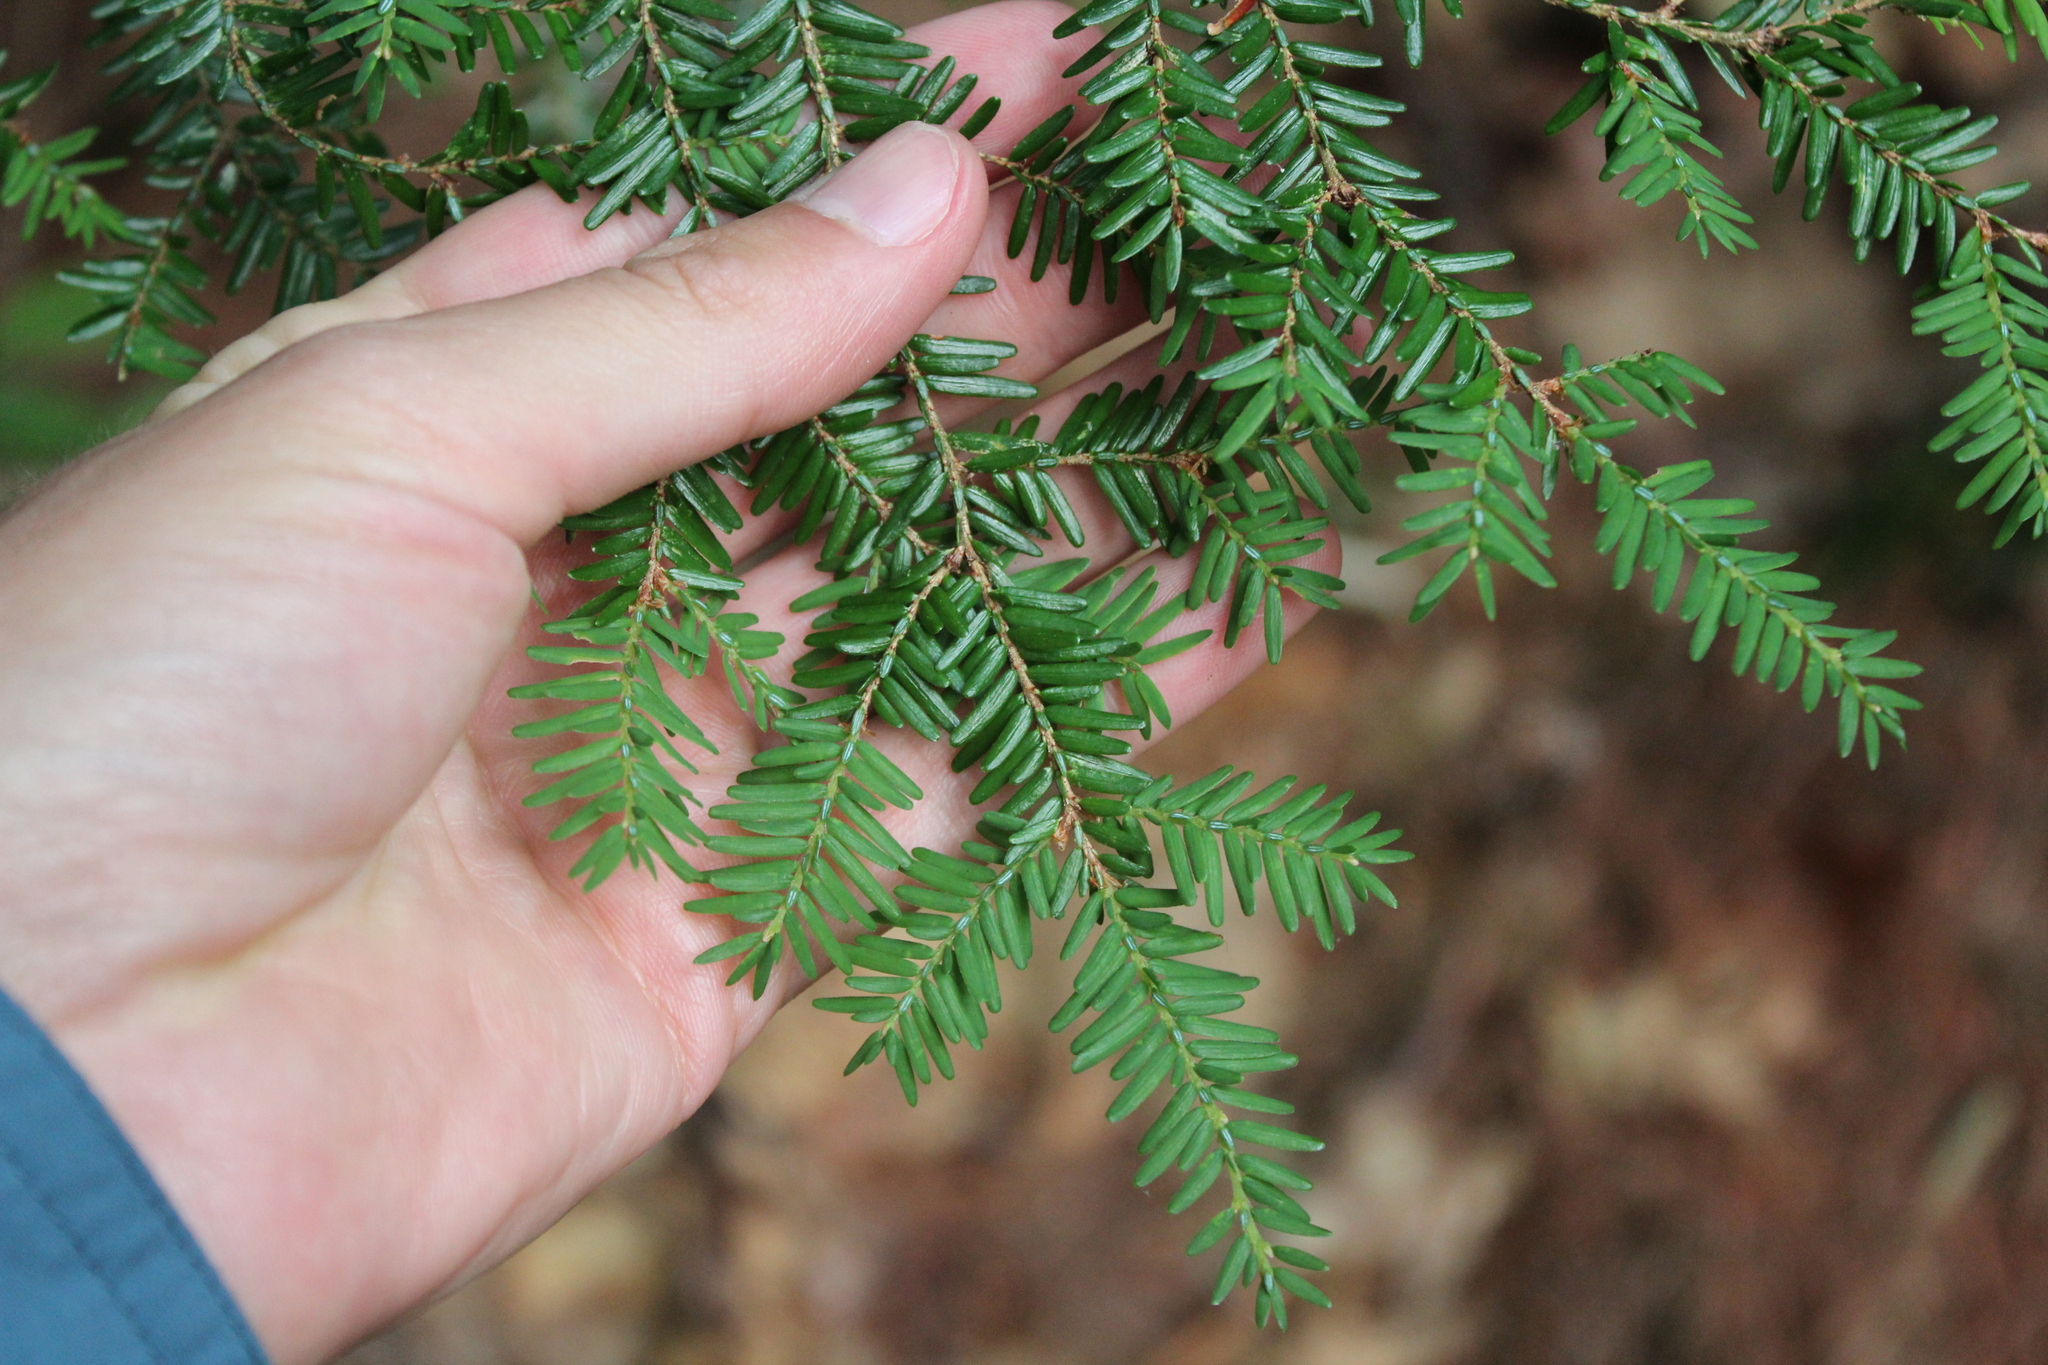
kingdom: Plantae
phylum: Tracheophyta
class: Pinopsida
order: Pinales
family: Pinaceae
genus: Tsuga
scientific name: Tsuga canadensis
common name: Eastern hemlock
